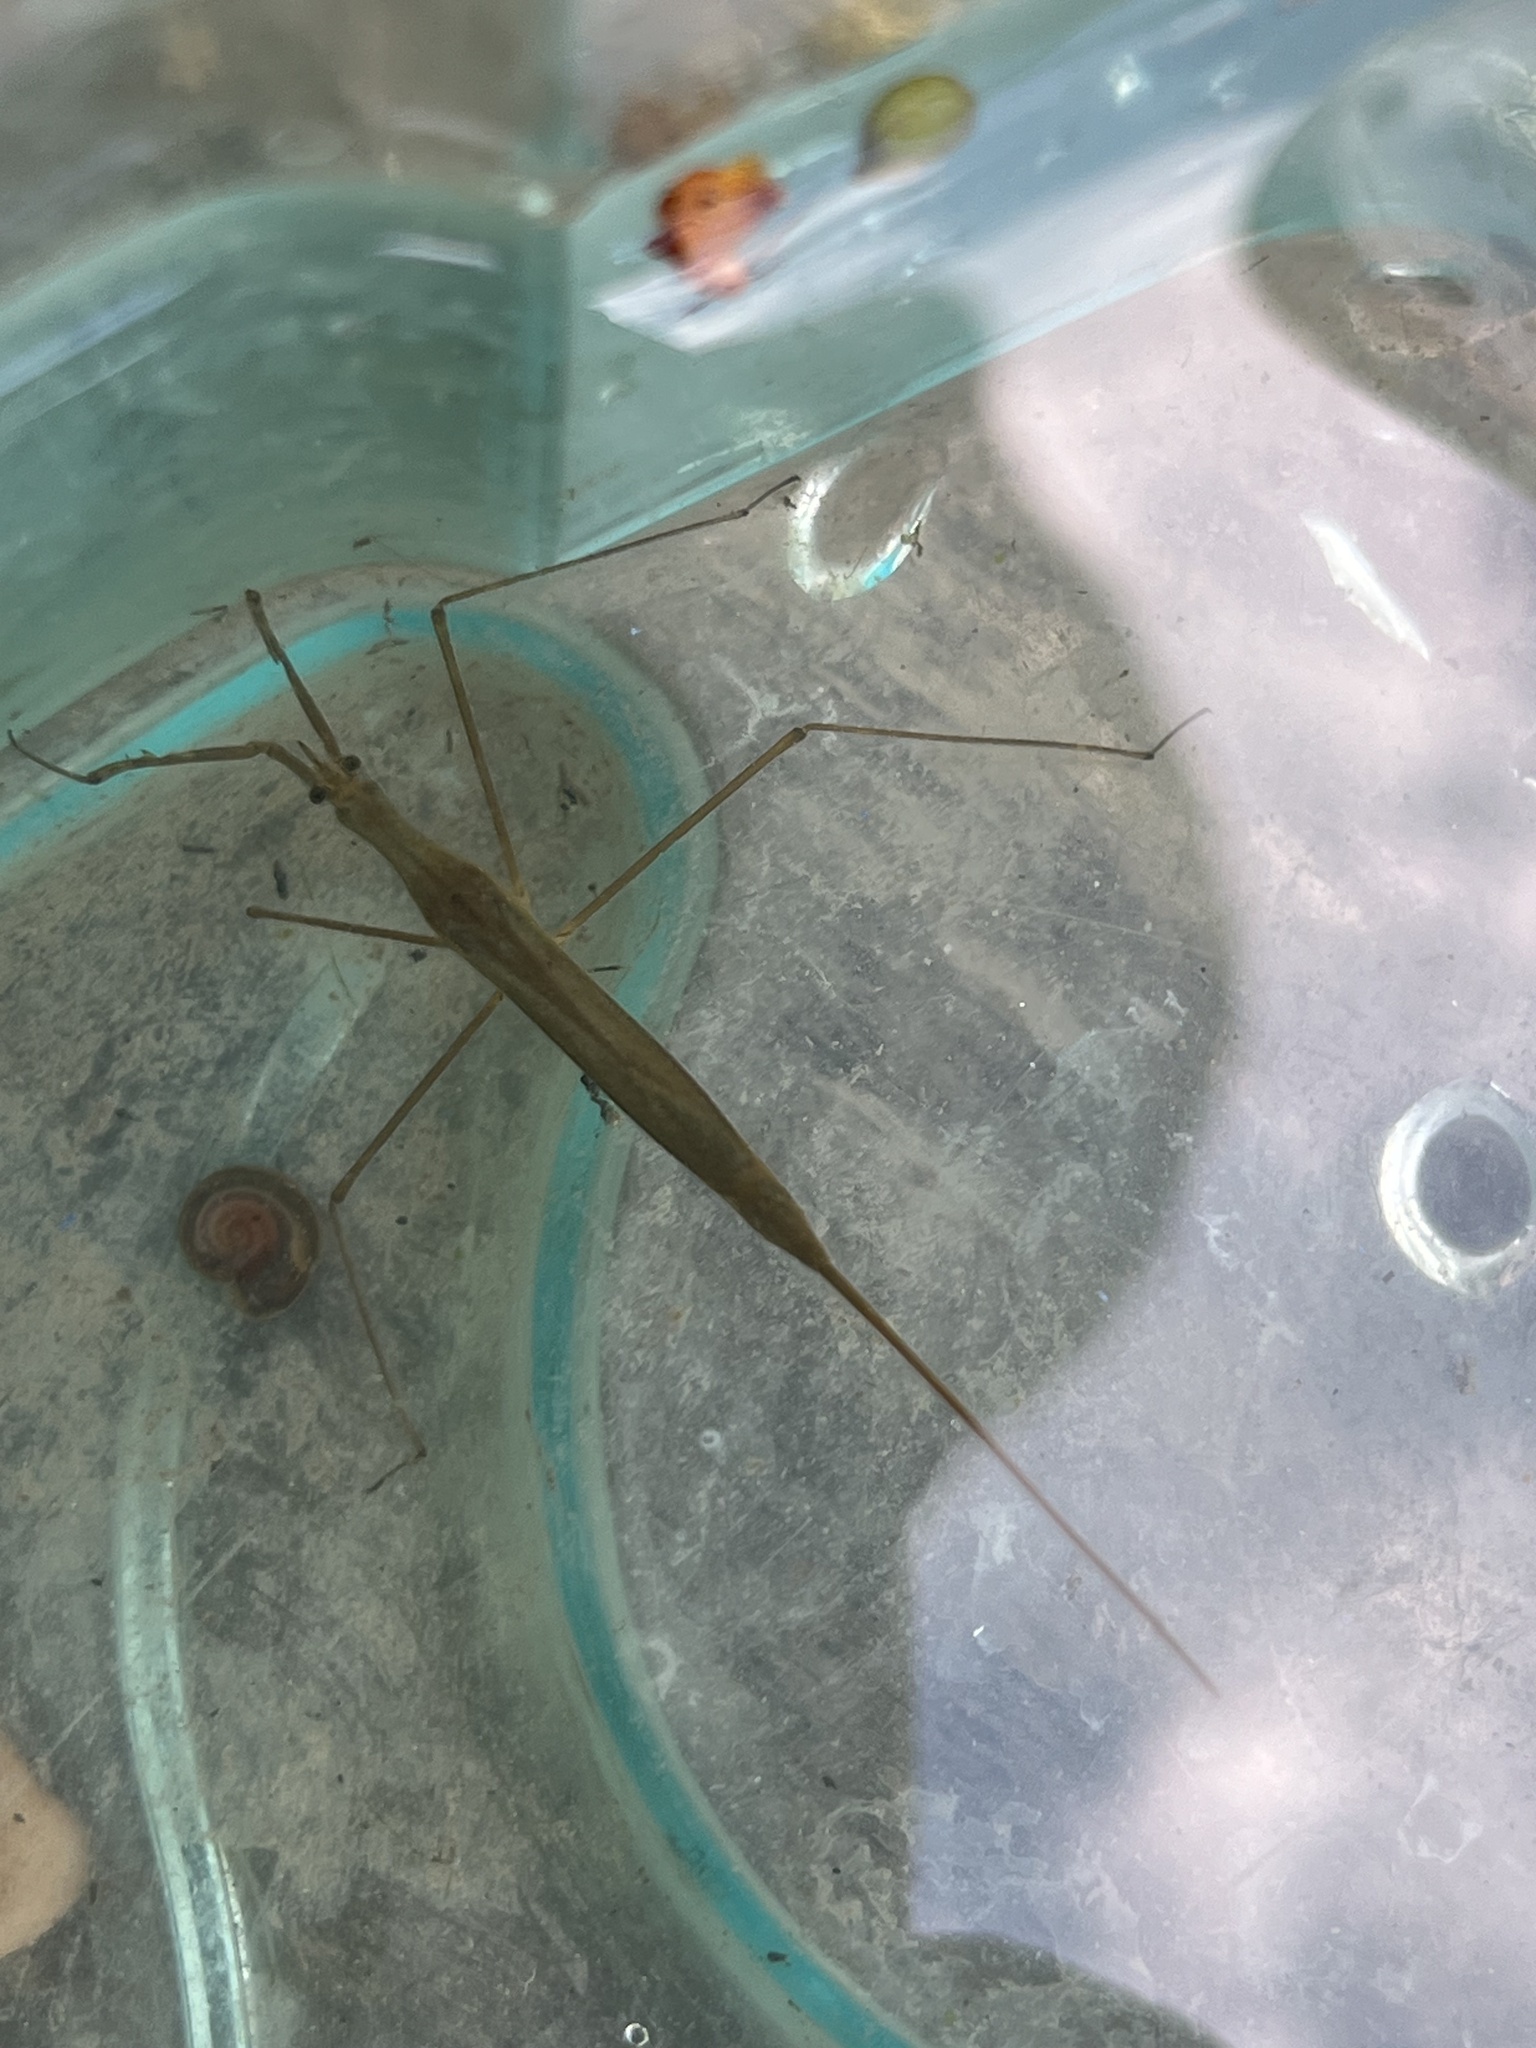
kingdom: Animalia
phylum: Arthropoda
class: Insecta
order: Hemiptera
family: Nepidae
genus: Ranatra
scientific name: Ranatra linearis
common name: Water stick insect
